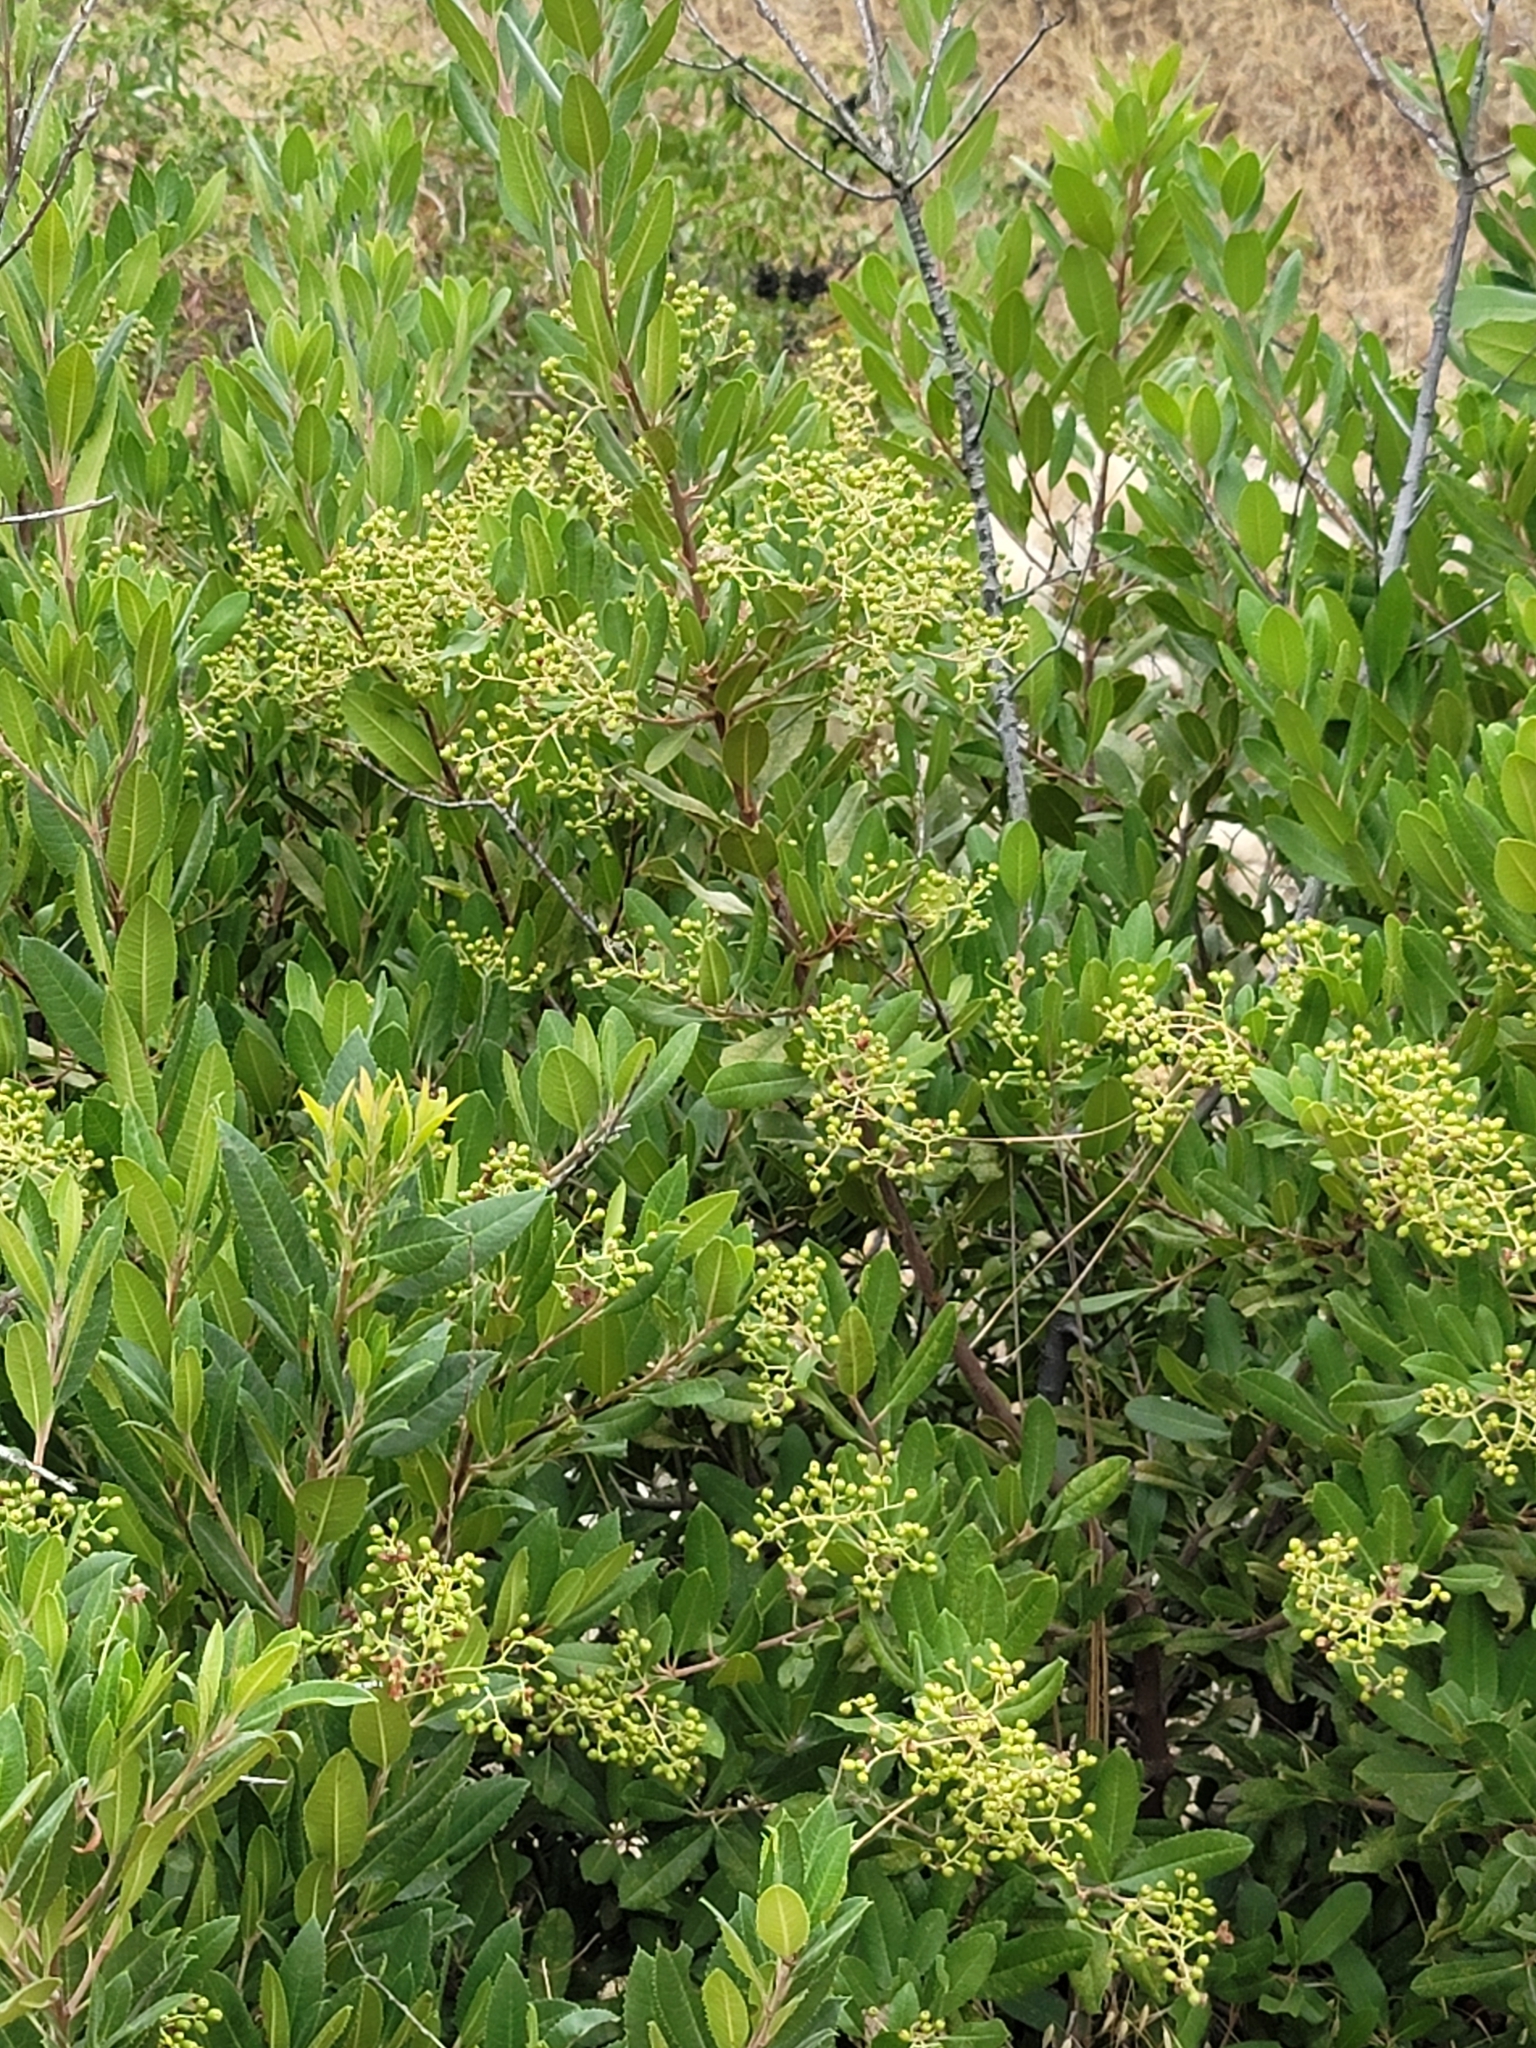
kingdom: Plantae
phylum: Tracheophyta
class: Magnoliopsida
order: Rosales
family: Rosaceae
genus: Heteromeles
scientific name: Heteromeles arbutifolia
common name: California-holly
